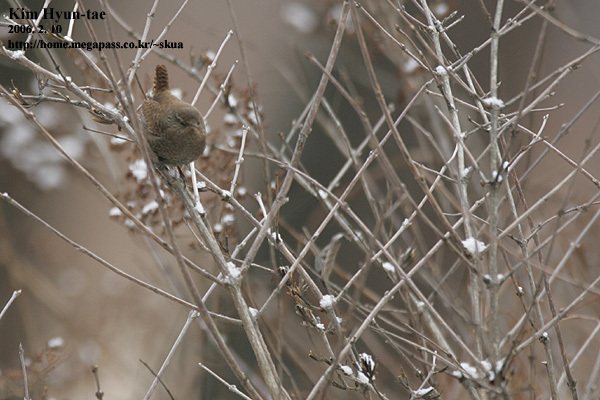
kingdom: Animalia
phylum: Chordata
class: Aves
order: Passeriformes
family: Troglodytidae
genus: Troglodytes
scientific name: Troglodytes troglodytes
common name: Eurasian wren
